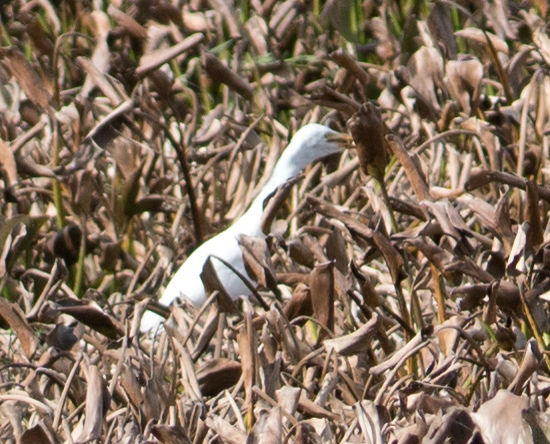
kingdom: Animalia
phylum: Chordata
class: Aves
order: Pelecaniformes
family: Ardeidae
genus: Bubulcus
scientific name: Bubulcus ibis
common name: Cattle egret
